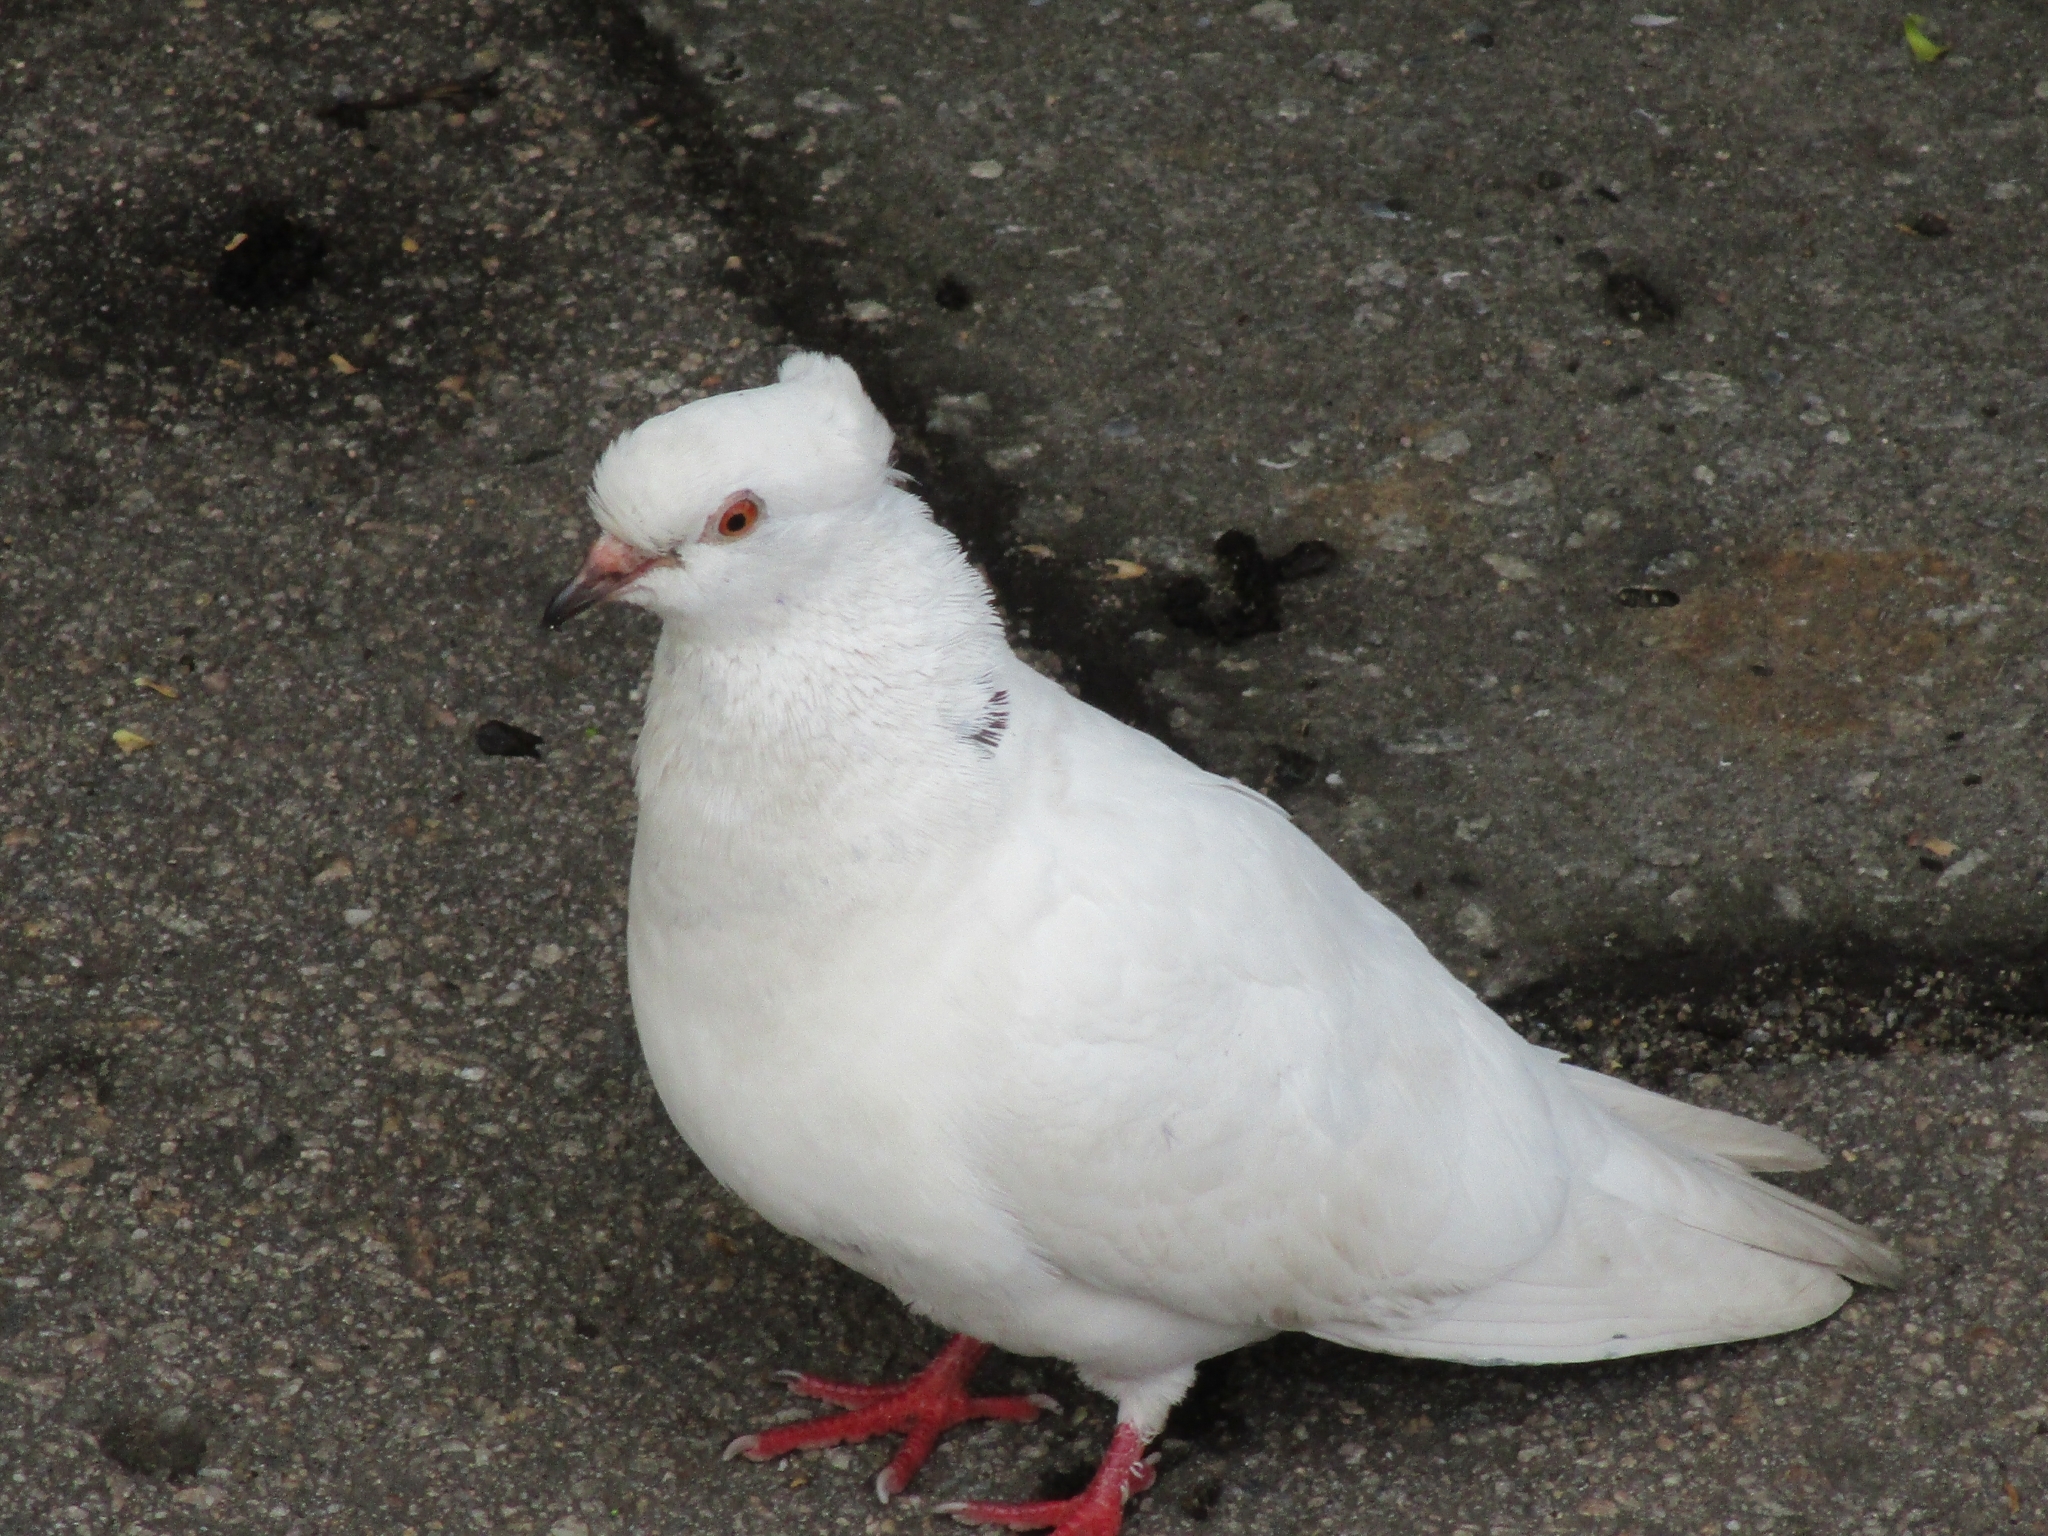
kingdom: Animalia
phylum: Chordata
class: Aves
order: Columbiformes
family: Columbidae
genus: Columba
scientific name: Columba livia
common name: Rock pigeon
